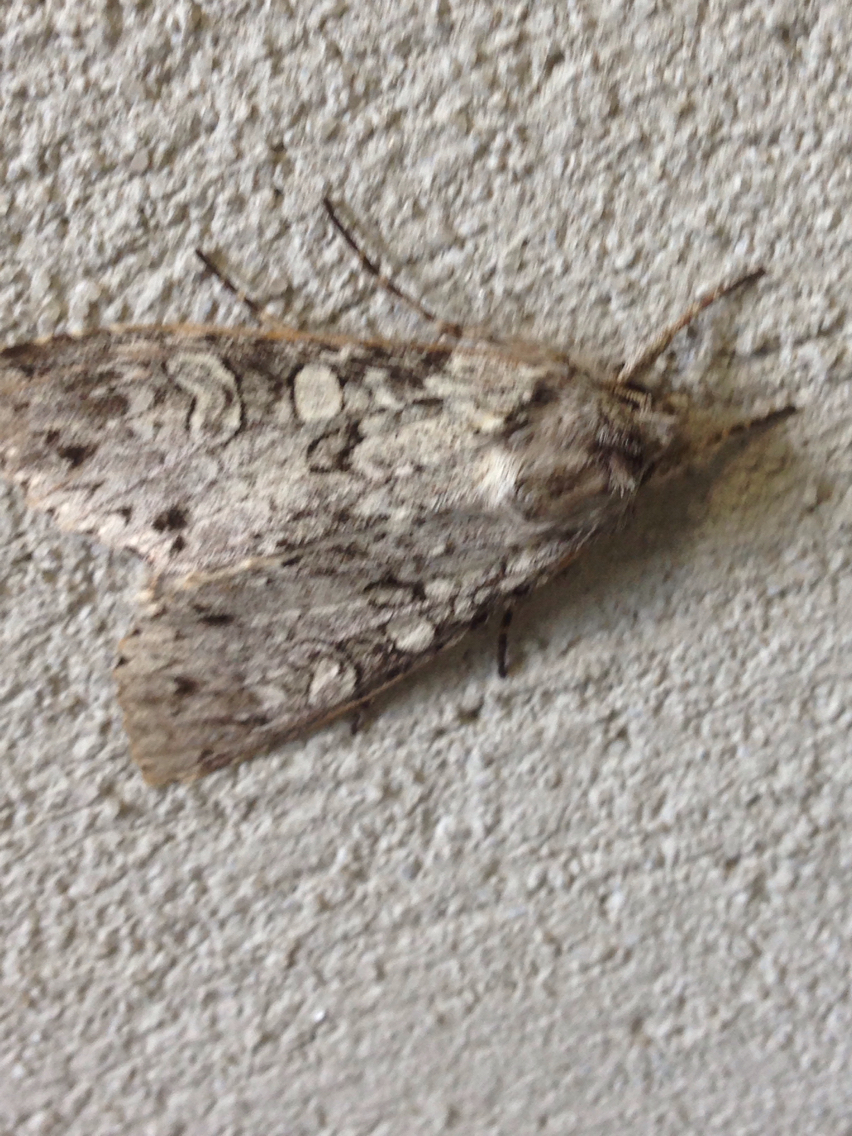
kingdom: Animalia
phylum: Arthropoda
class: Insecta
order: Lepidoptera
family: Noctuidae
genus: Polia
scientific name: Polia nimbosa
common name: Stormy arches
